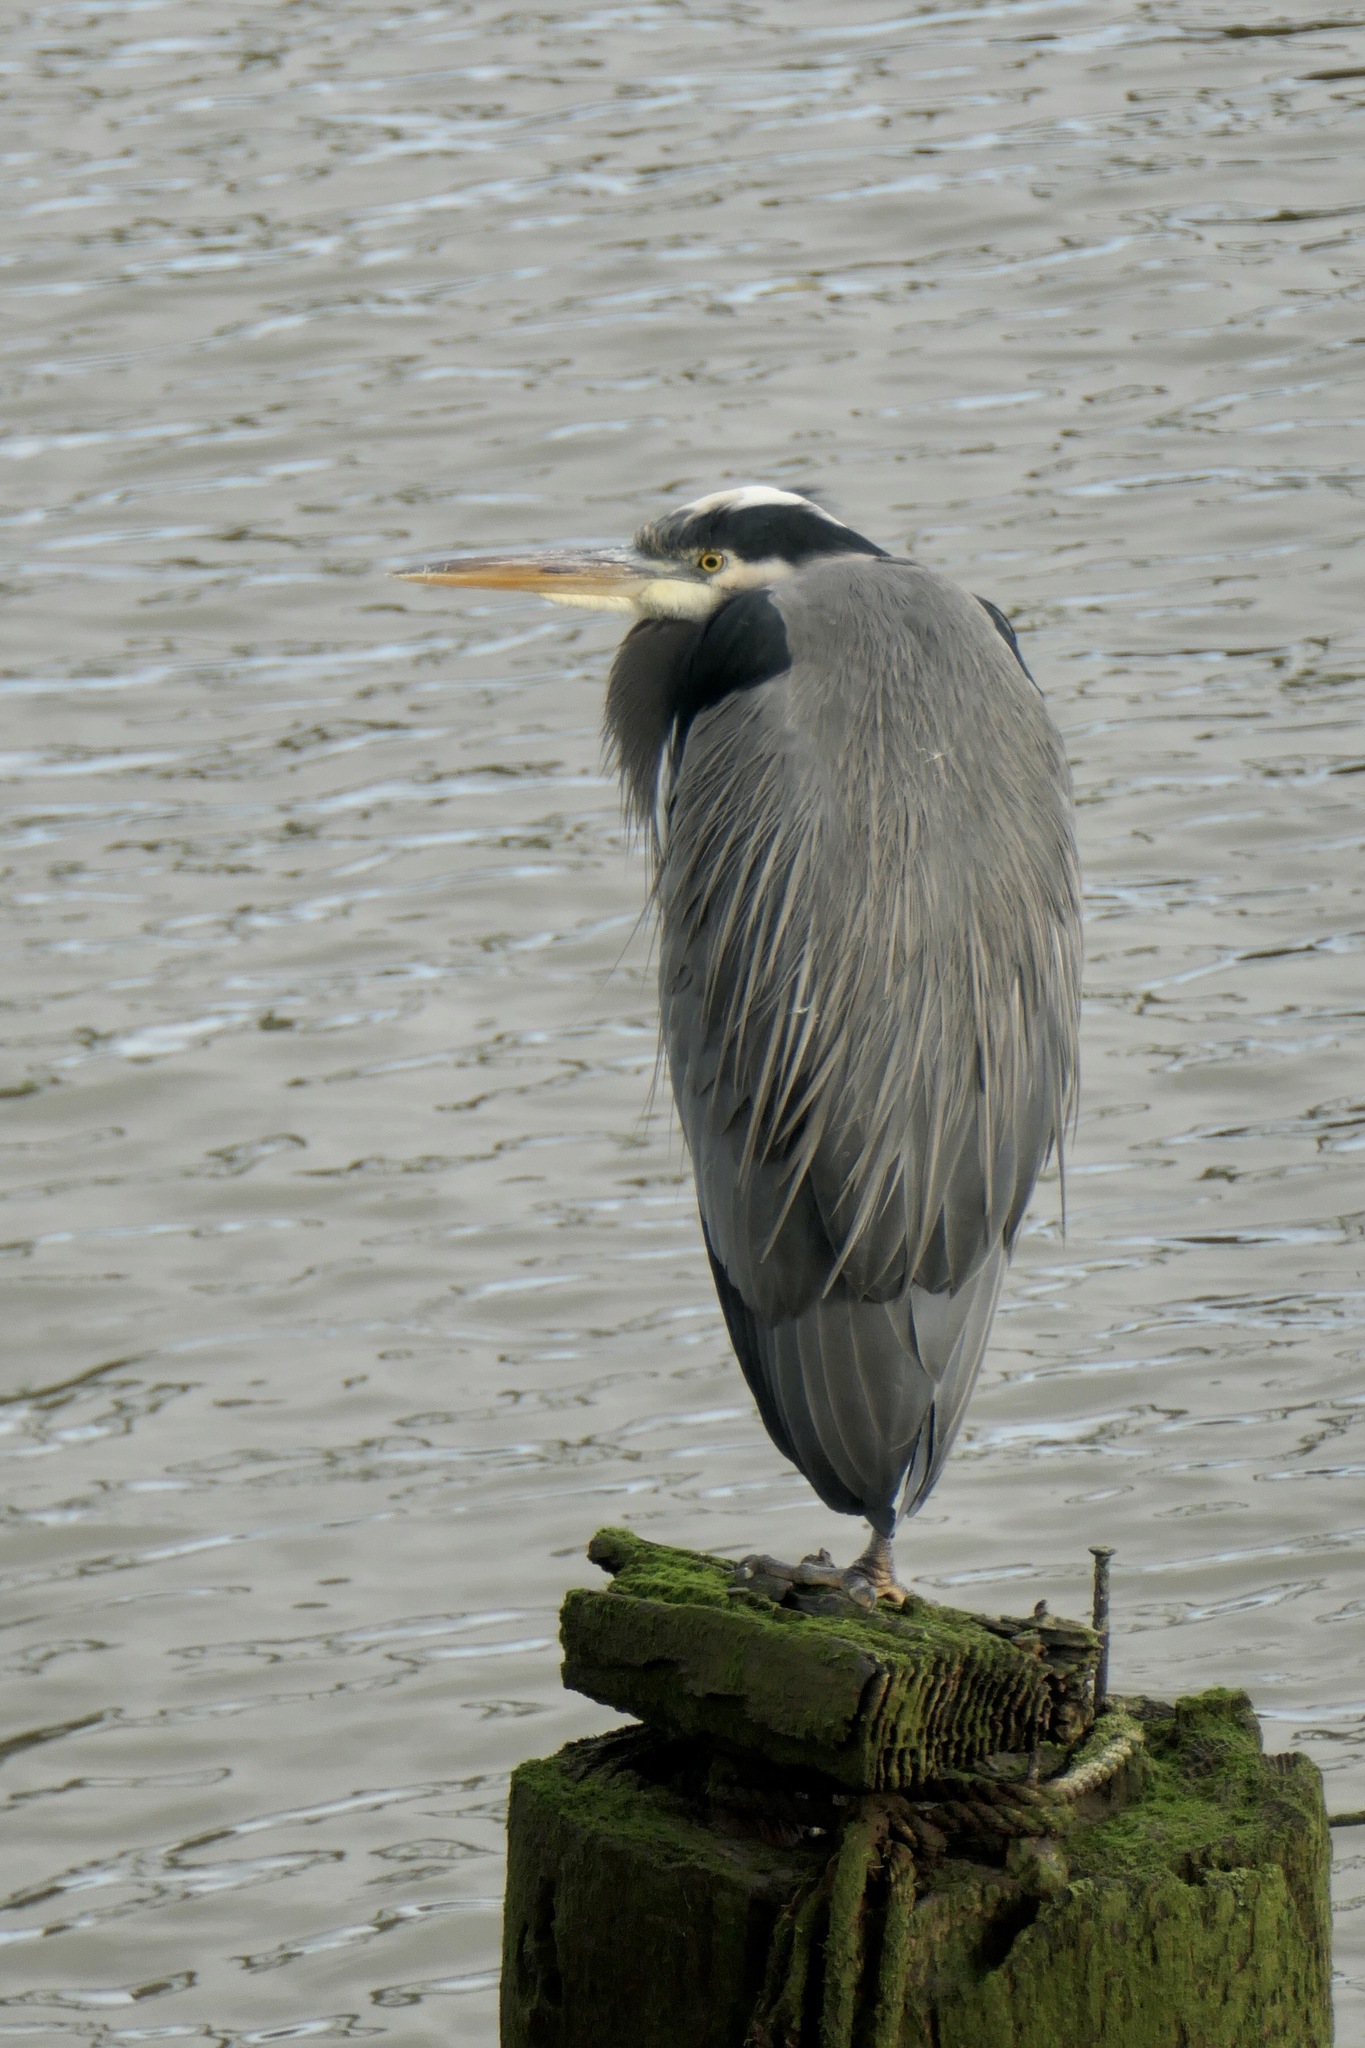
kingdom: Animalia
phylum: Chordata
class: Aves
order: Pelecaniformes
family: Ardeidae
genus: Ardea
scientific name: Ardea herodias
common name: Great blue heron
